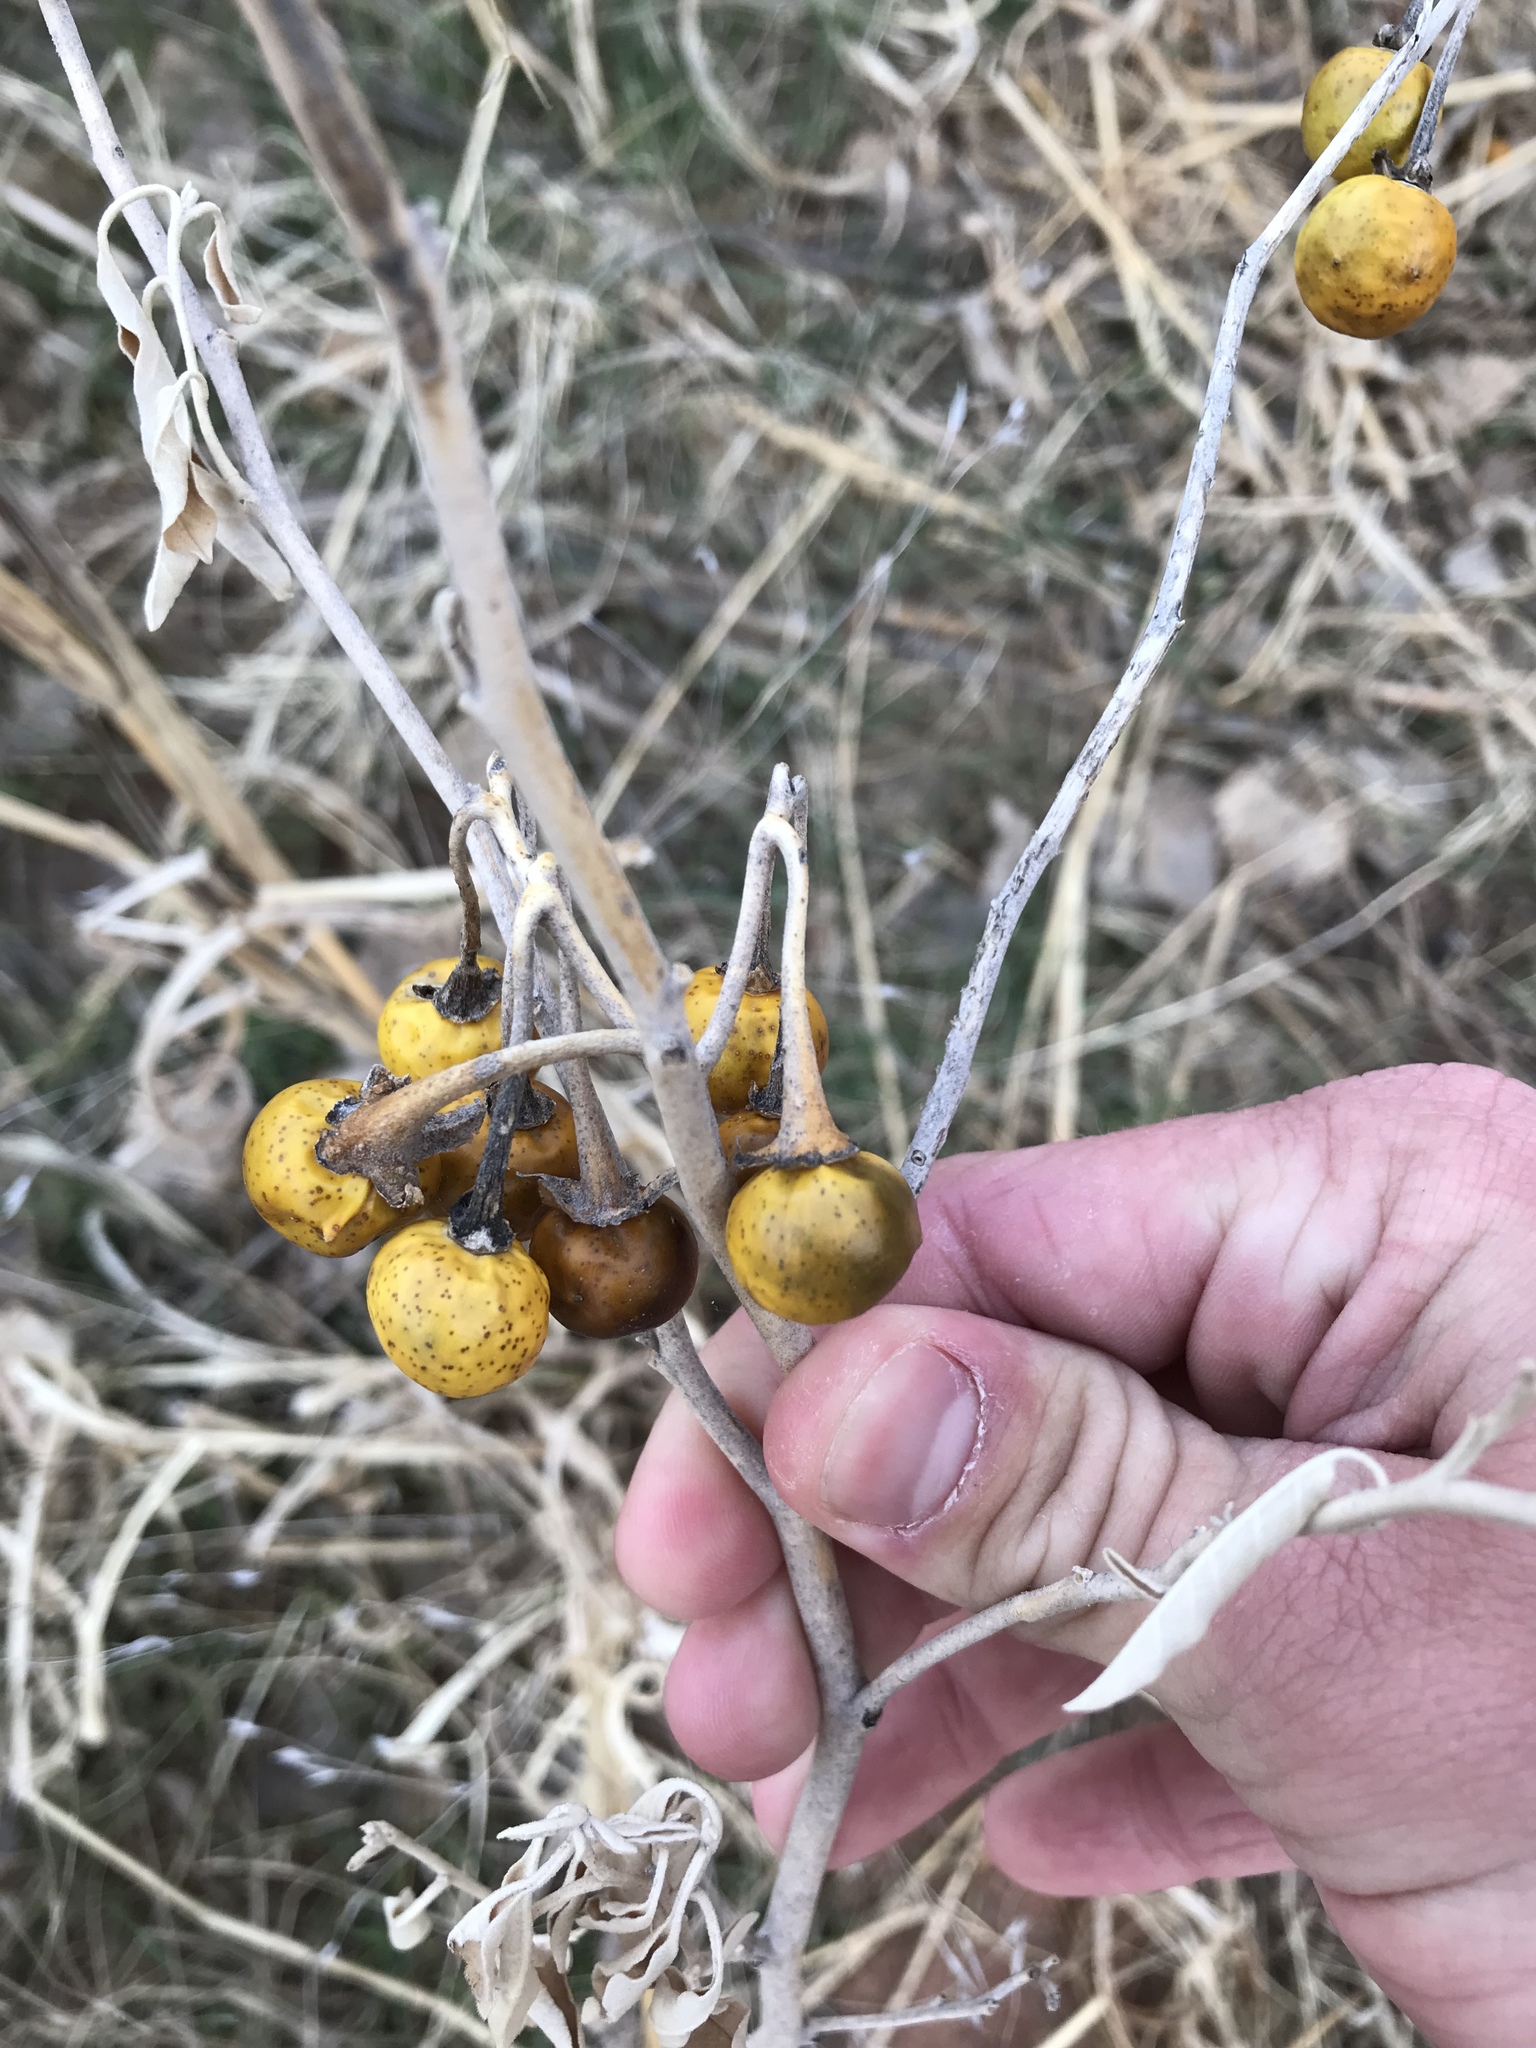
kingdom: Plantae
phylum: Tracheophyta
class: Magnoliopsida
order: Solanales
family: Solanaceae
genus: Solanum
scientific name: Solanum elaeagnifolium
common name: Silverleaf nightshade
